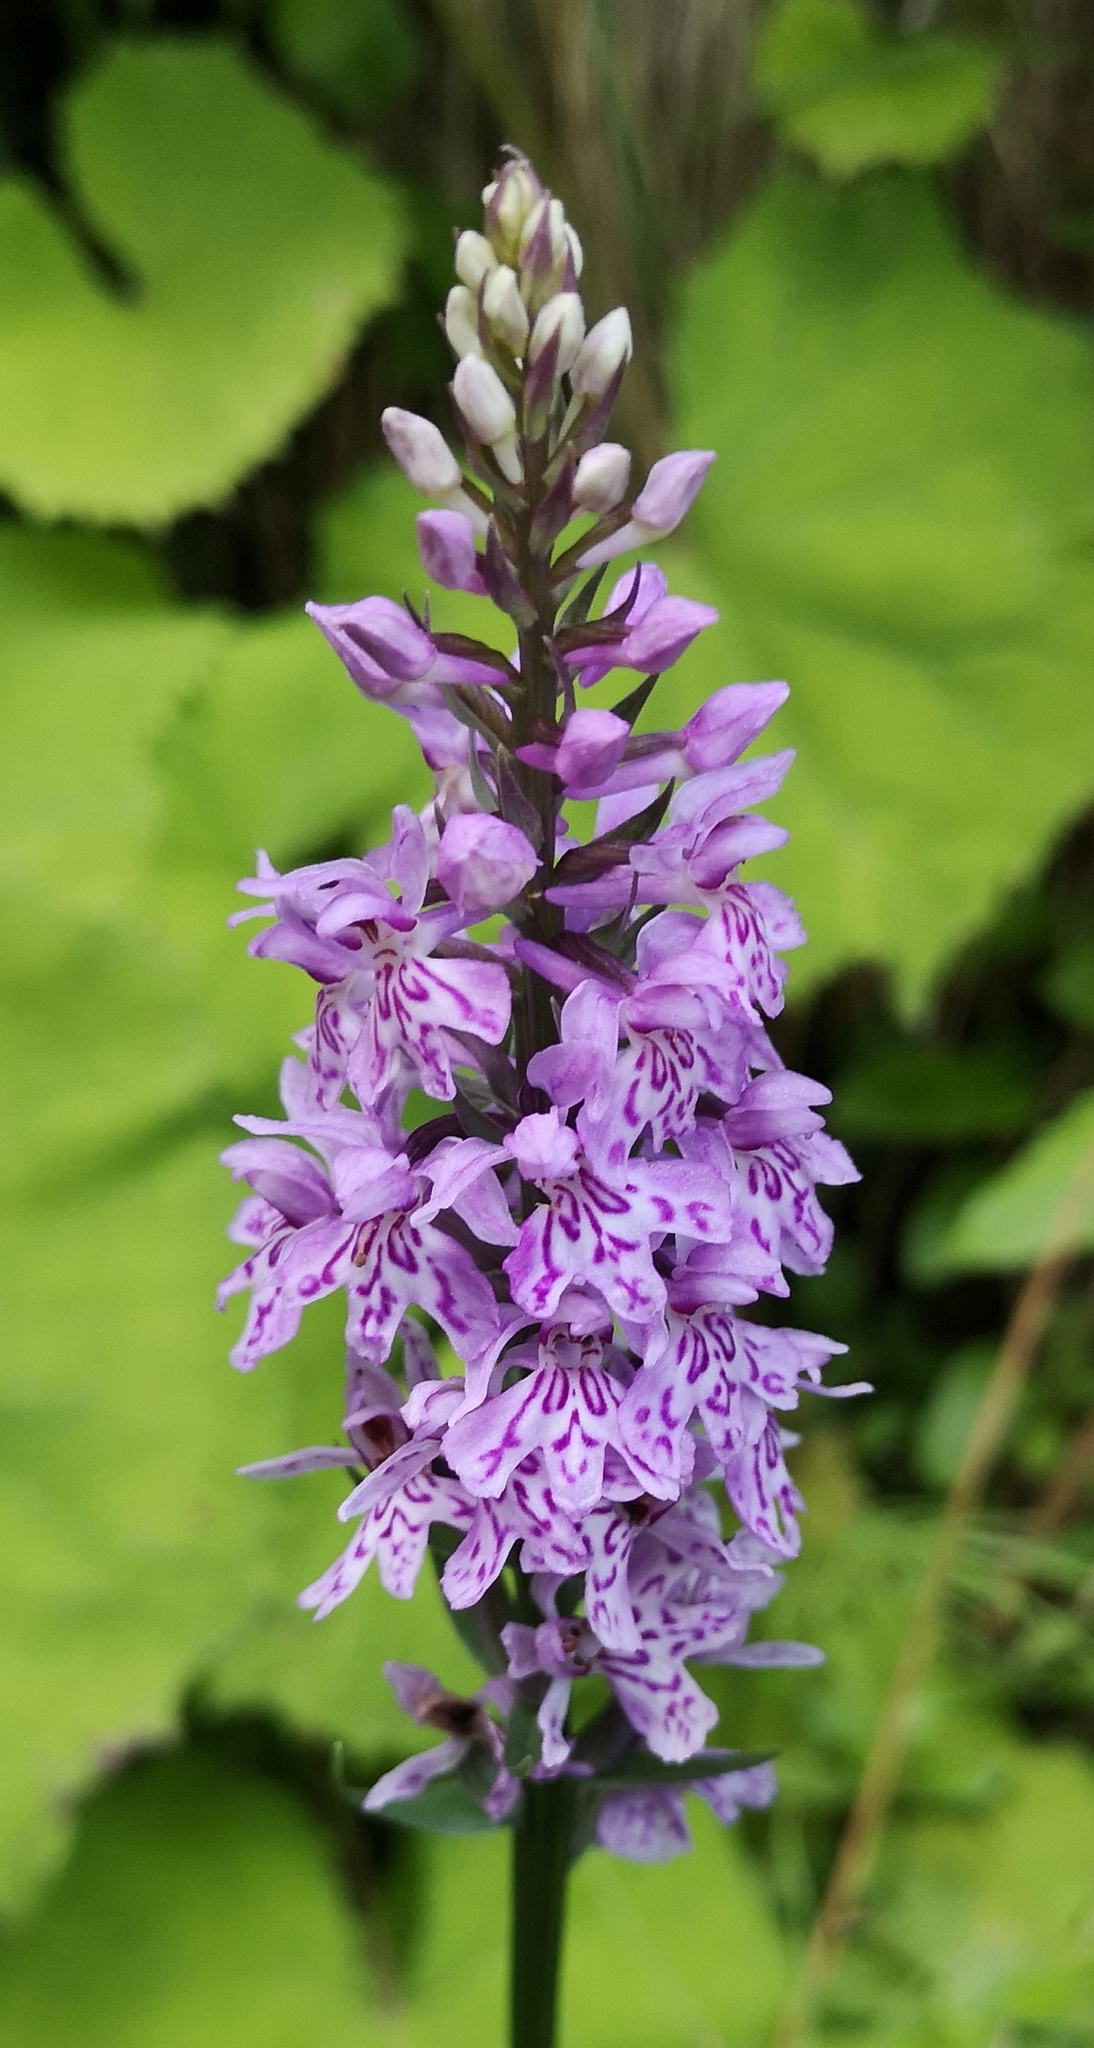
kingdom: Plantae
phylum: Tracheophyta
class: Liliopsida
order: Asparagales
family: Orchidaceae
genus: Dactylorhiza
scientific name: Dactylorhiza maculata
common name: Heath spotted-orchid
